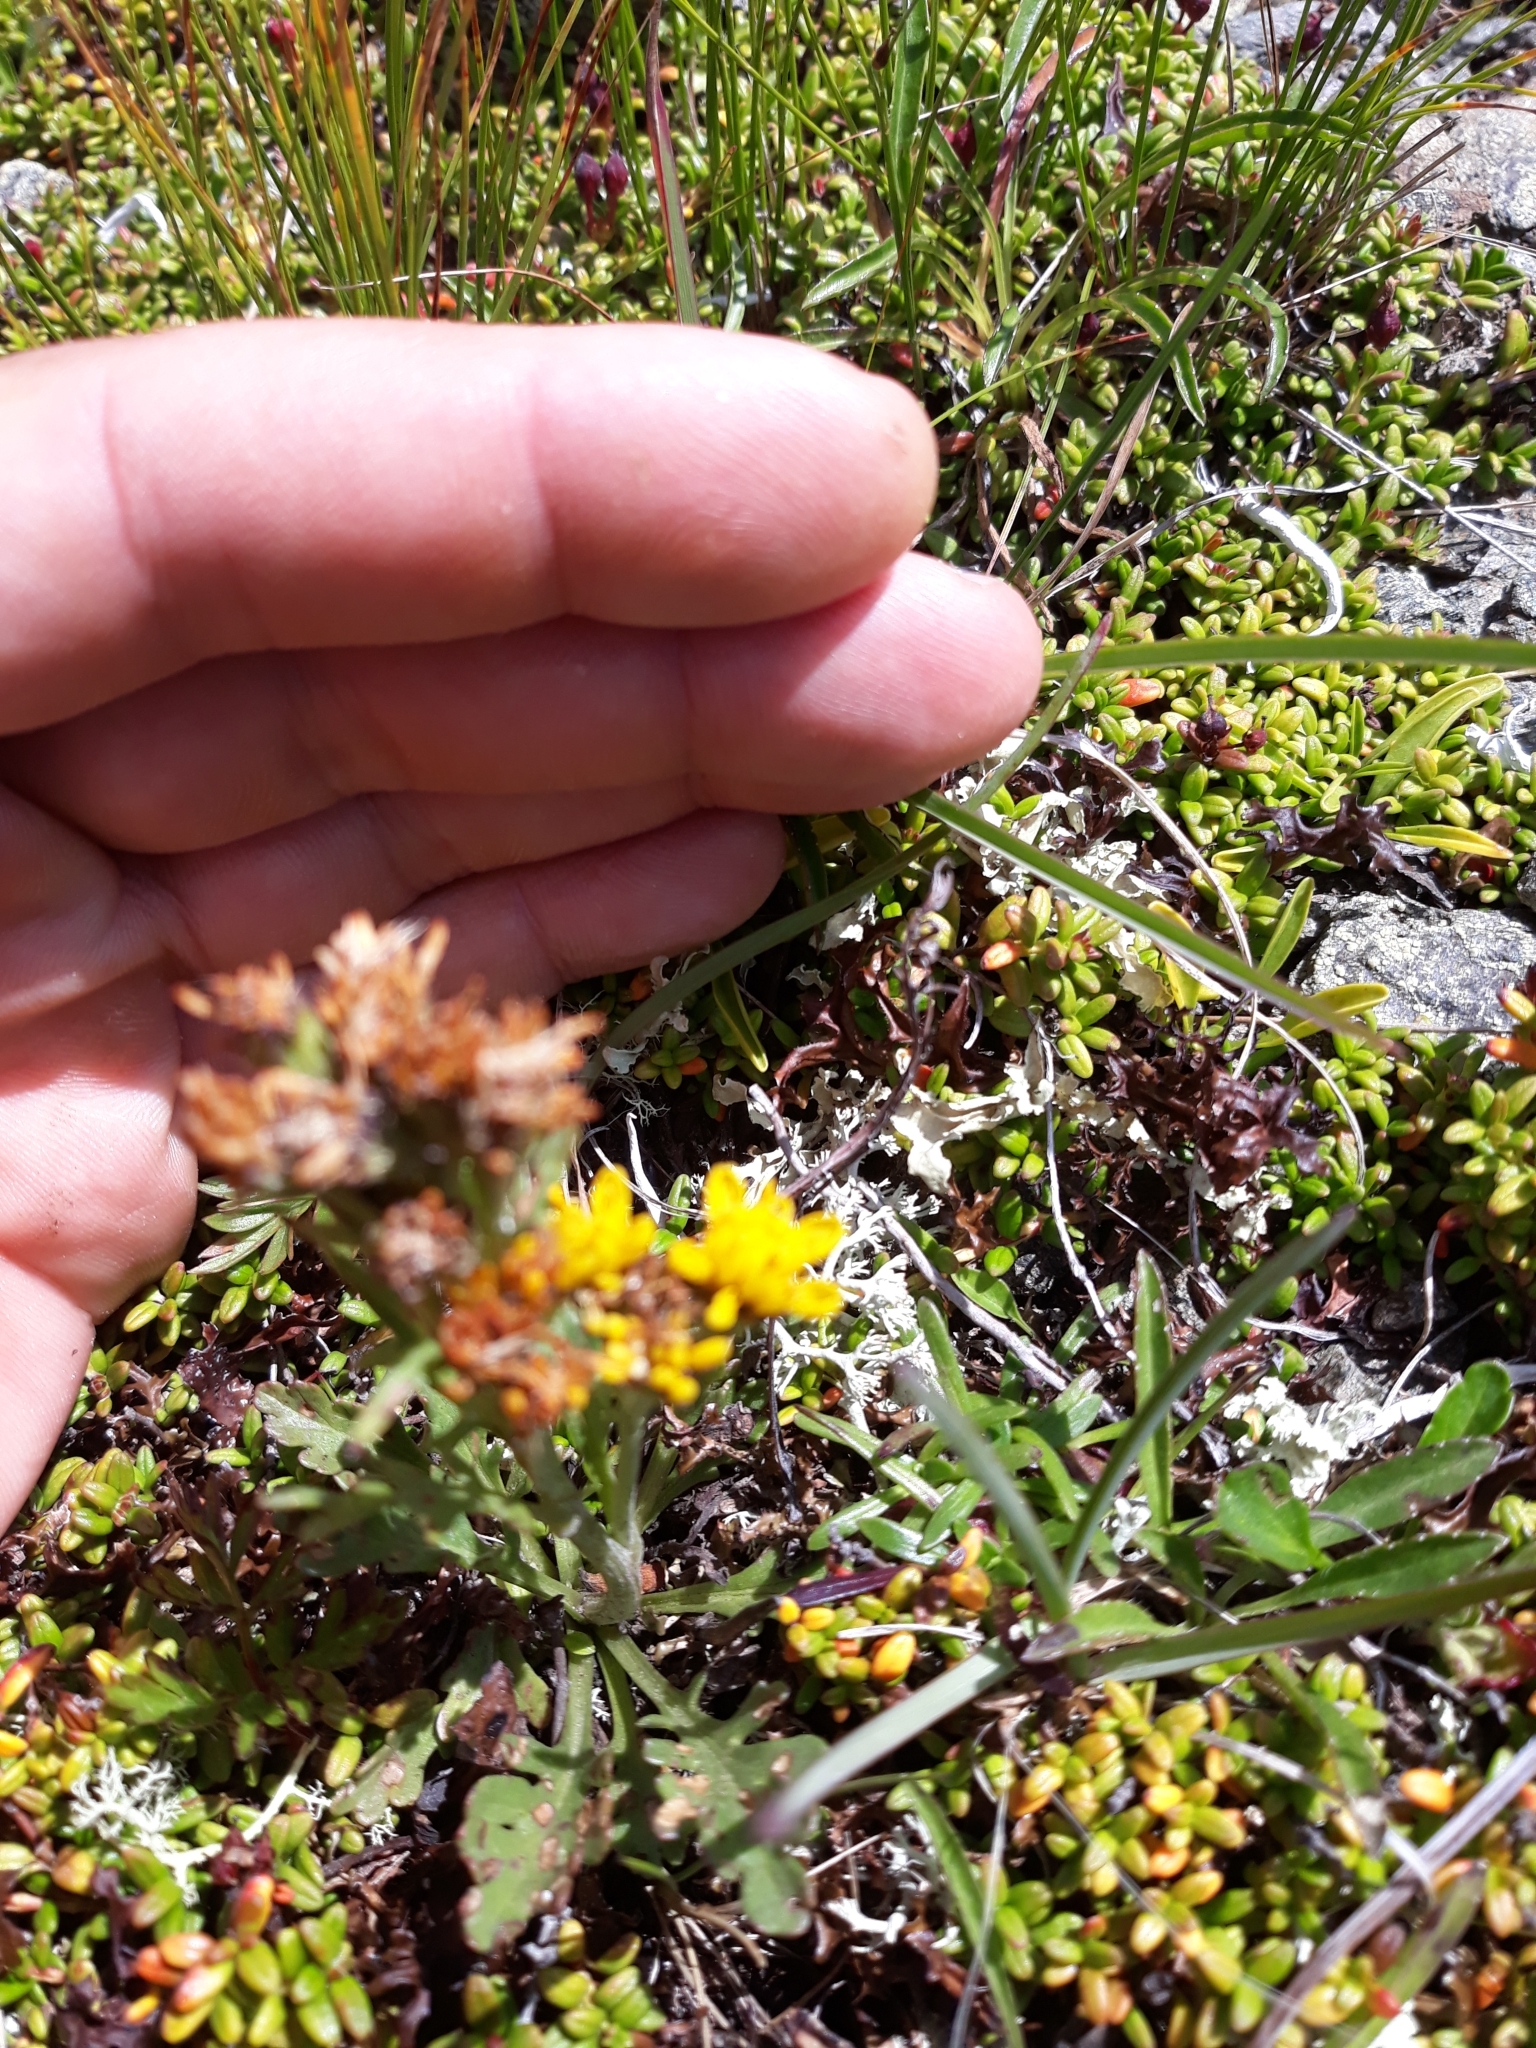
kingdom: Plantae
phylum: Tracheophyta
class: Magnoliopsida
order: Asterales
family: Asteraceae
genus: Jacobaea
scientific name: Jacobaea
